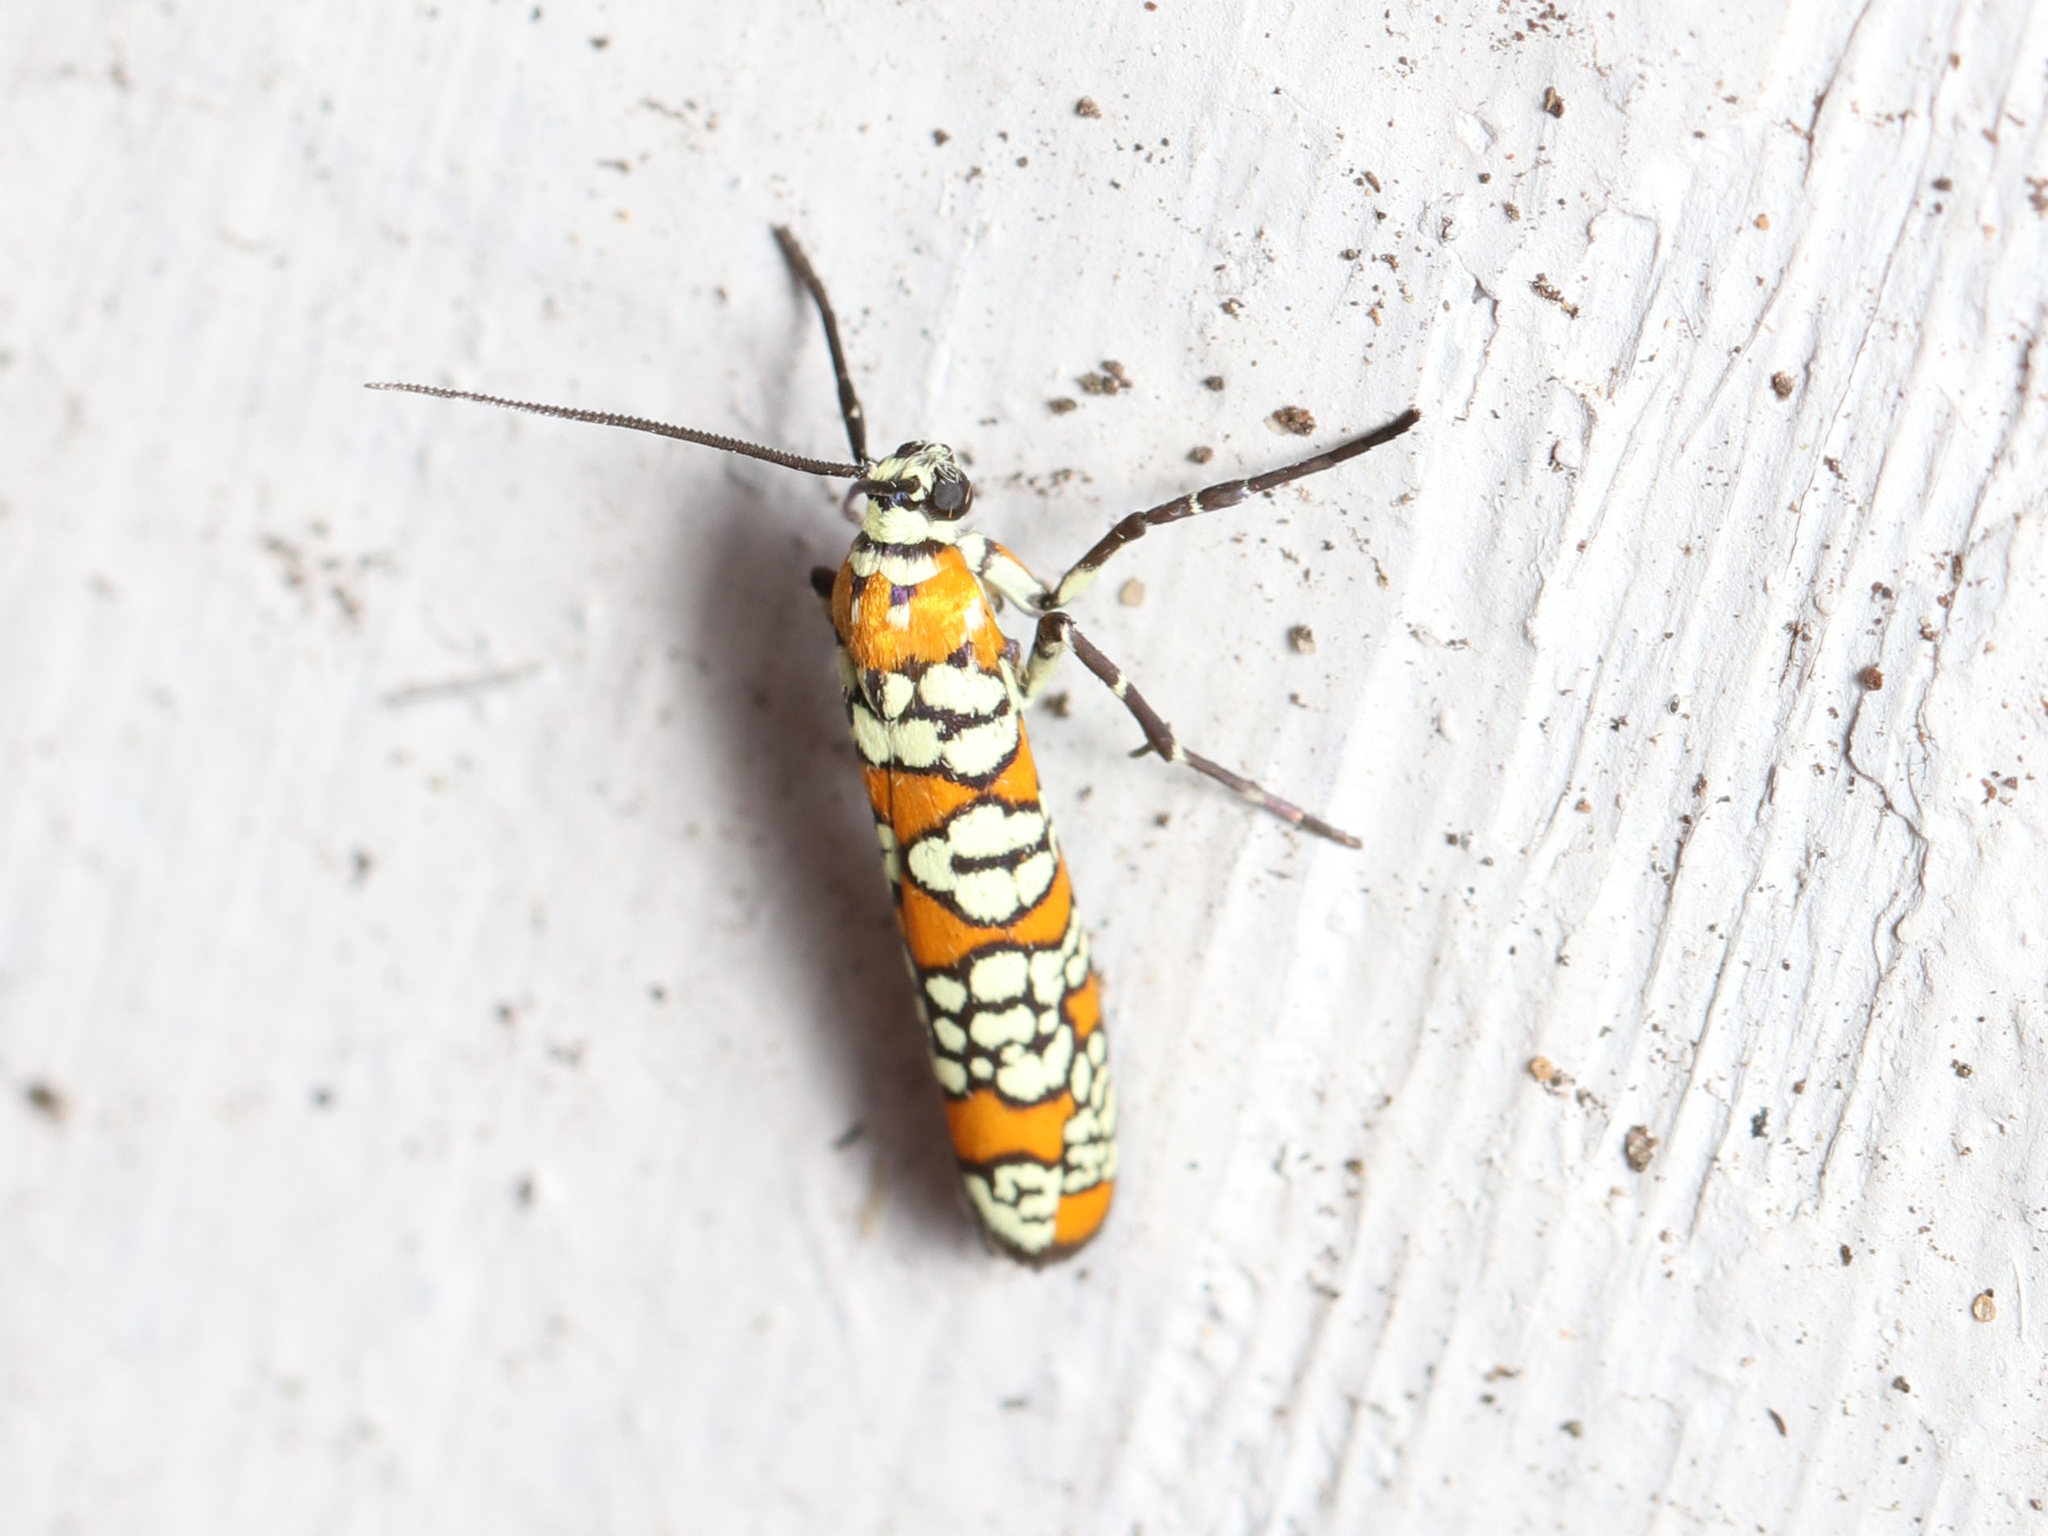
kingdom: Animalia
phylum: Arthropoda
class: Insecta
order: Lepidoptera
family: Attevidae
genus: Atteva
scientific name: Atteva punctella
